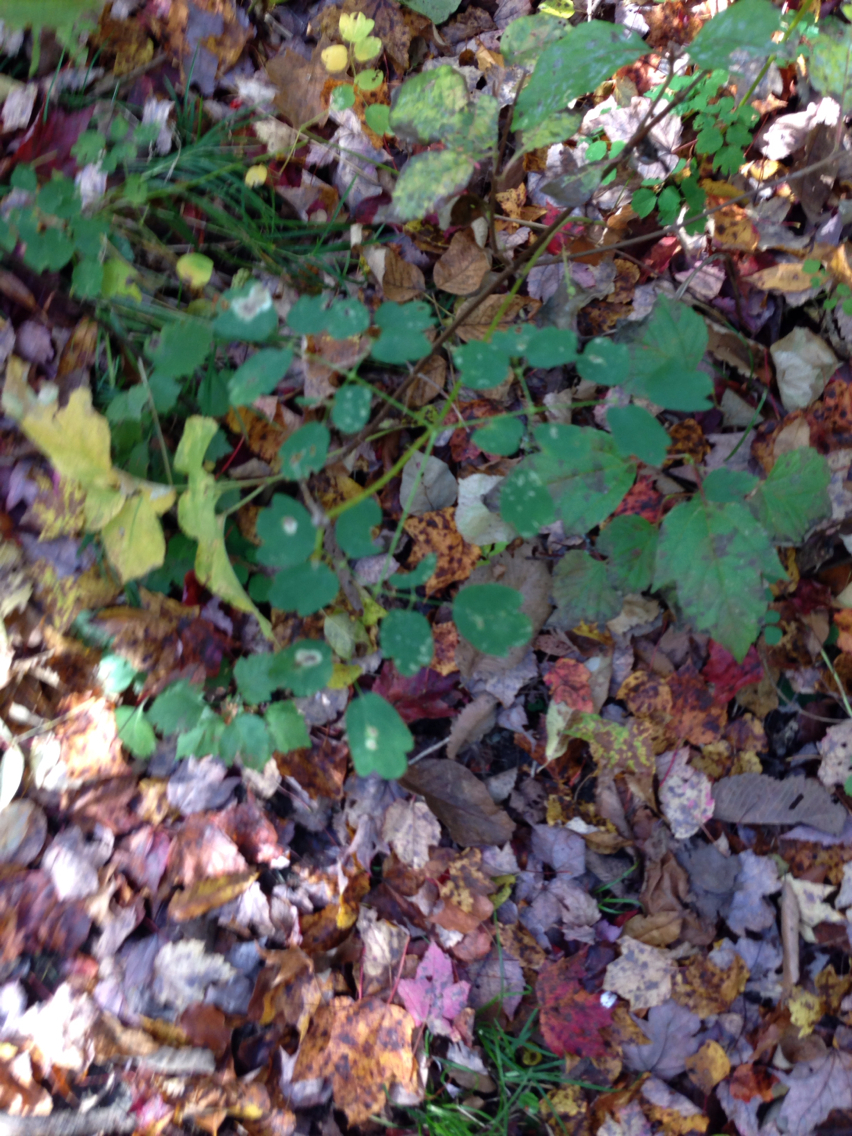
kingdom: Plantae
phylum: Tracheophyta
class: Magnoliopsida
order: Ranunculales
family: Ranunculaceae
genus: Thalictrum
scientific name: Thalictrum pubescens
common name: King-of-the-meadow
